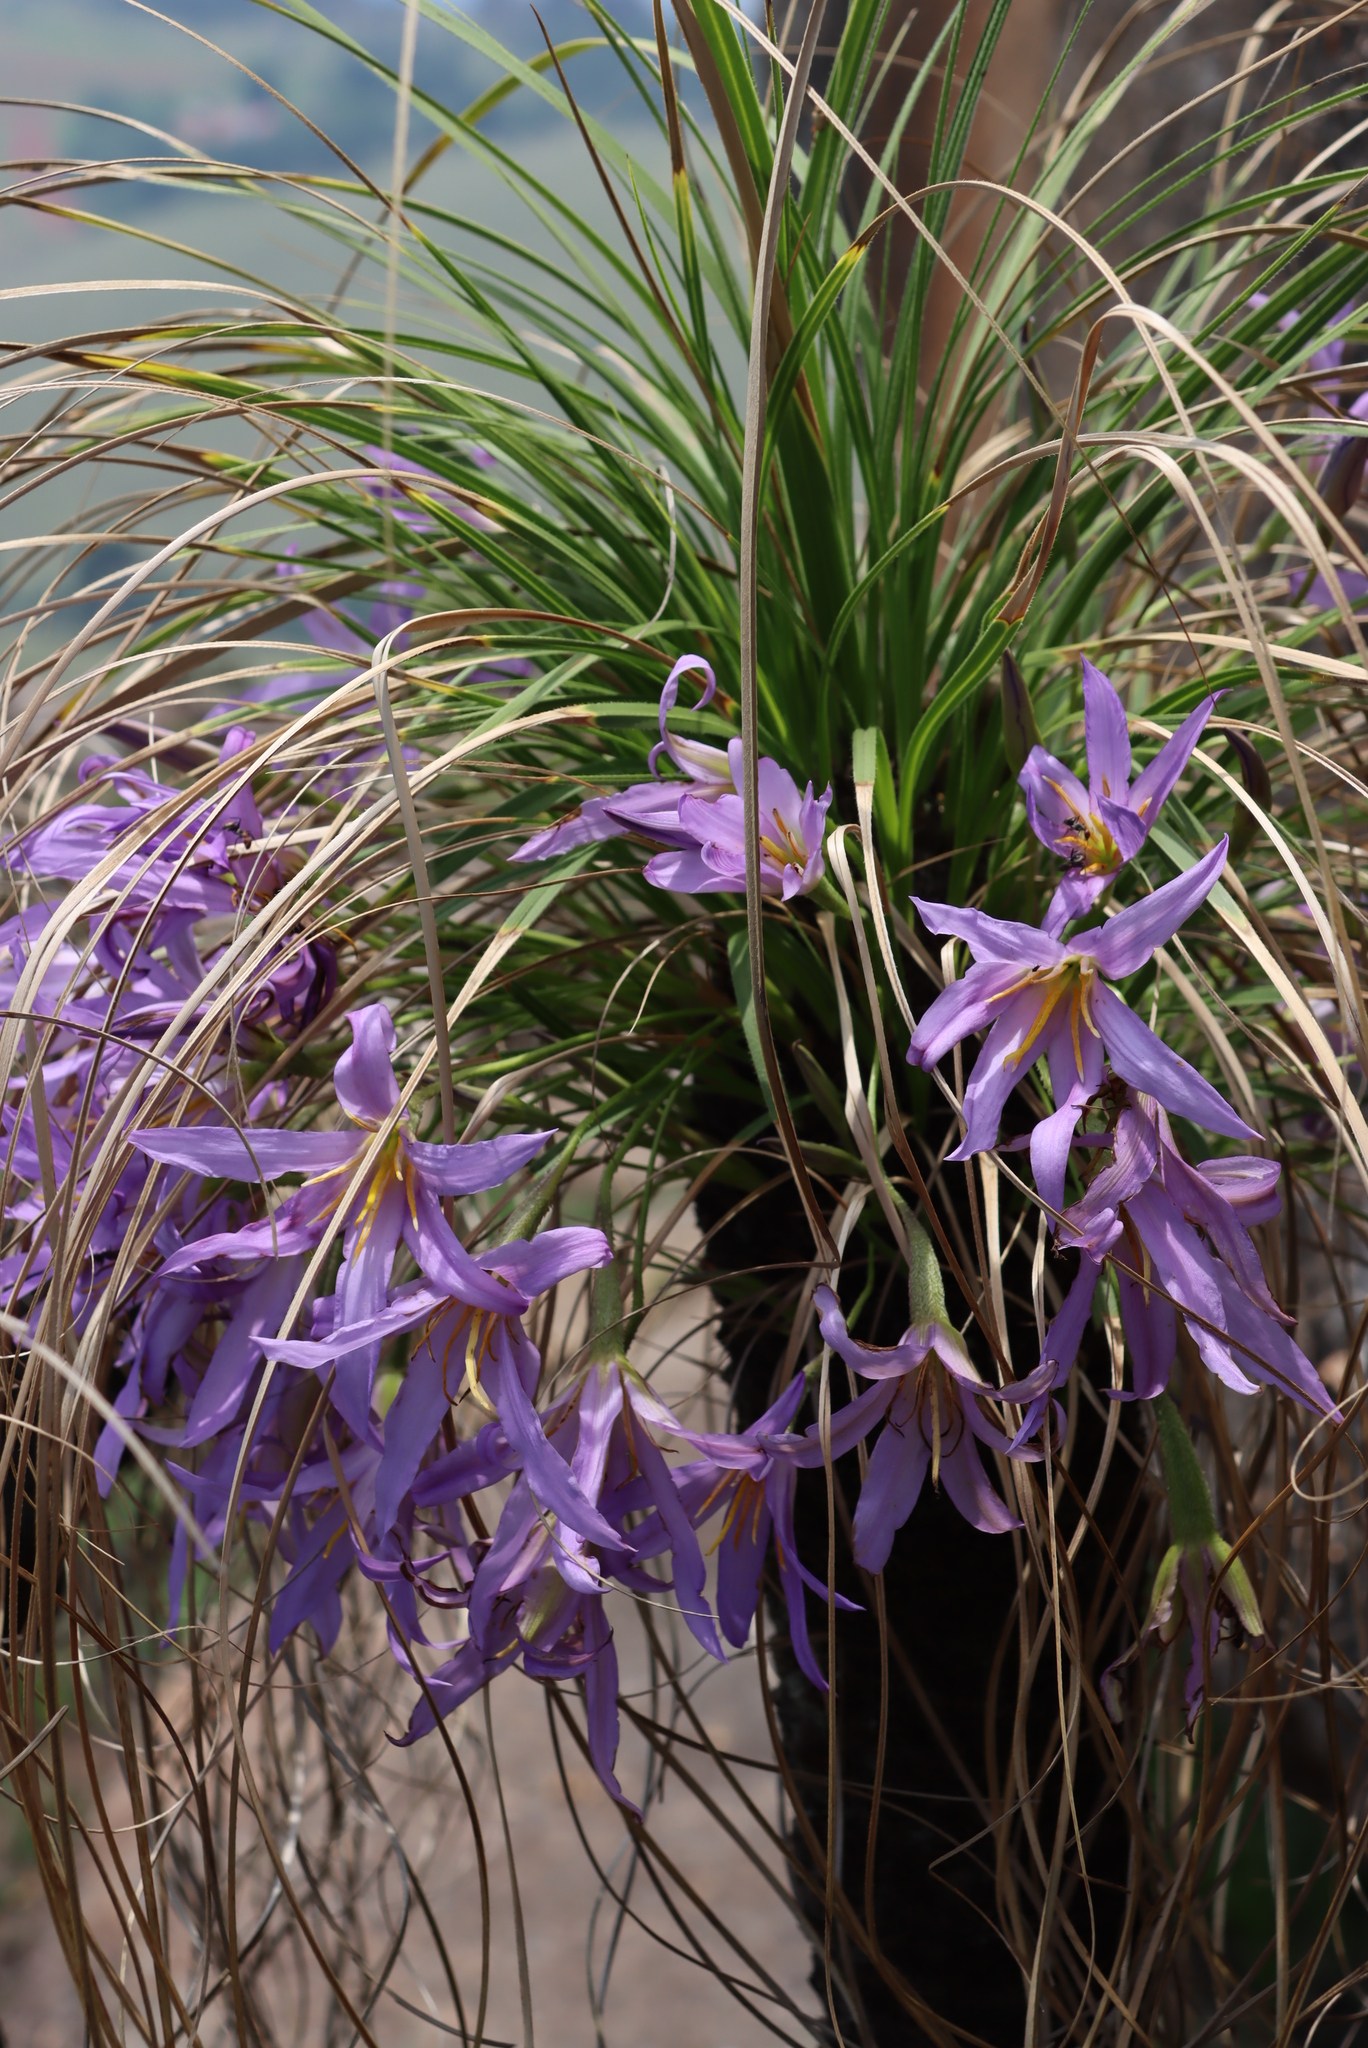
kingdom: Plantae
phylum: Tracheophyta
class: Liliopsida
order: Pandanales
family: Velloziaceae
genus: Xerophyta
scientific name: Xerophyta retinervis
